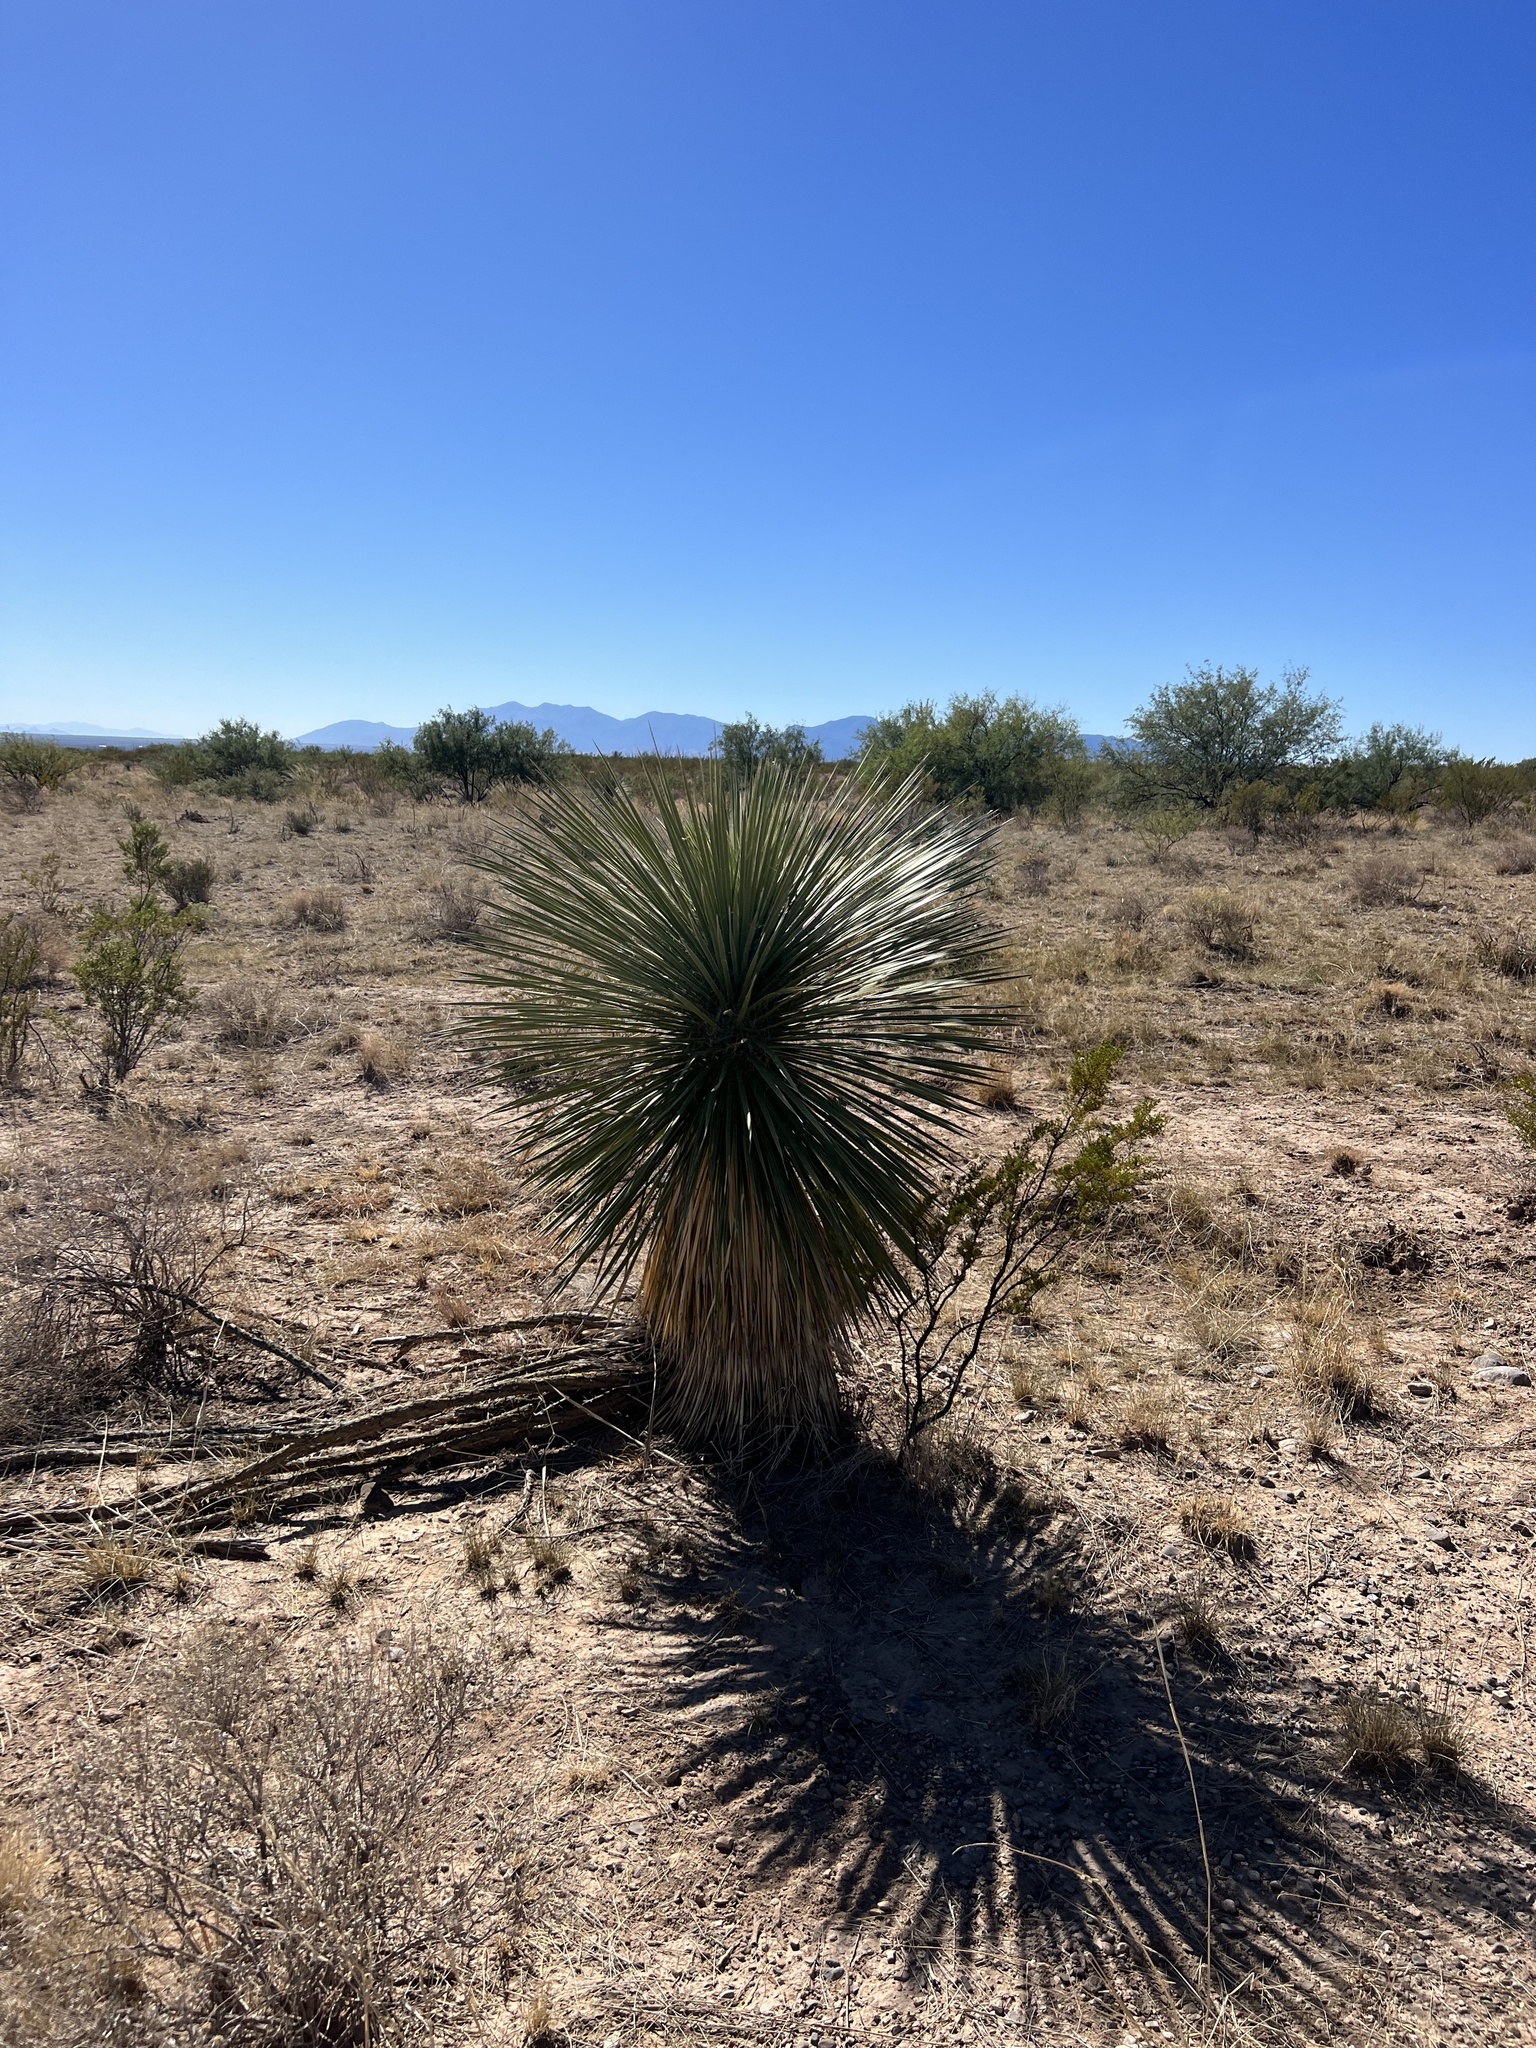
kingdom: Plantae
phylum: Tracheophyta
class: Liliopsida
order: Asparagales
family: Asparagaceae
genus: Yucca
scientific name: Yucca elata
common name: Palmella
